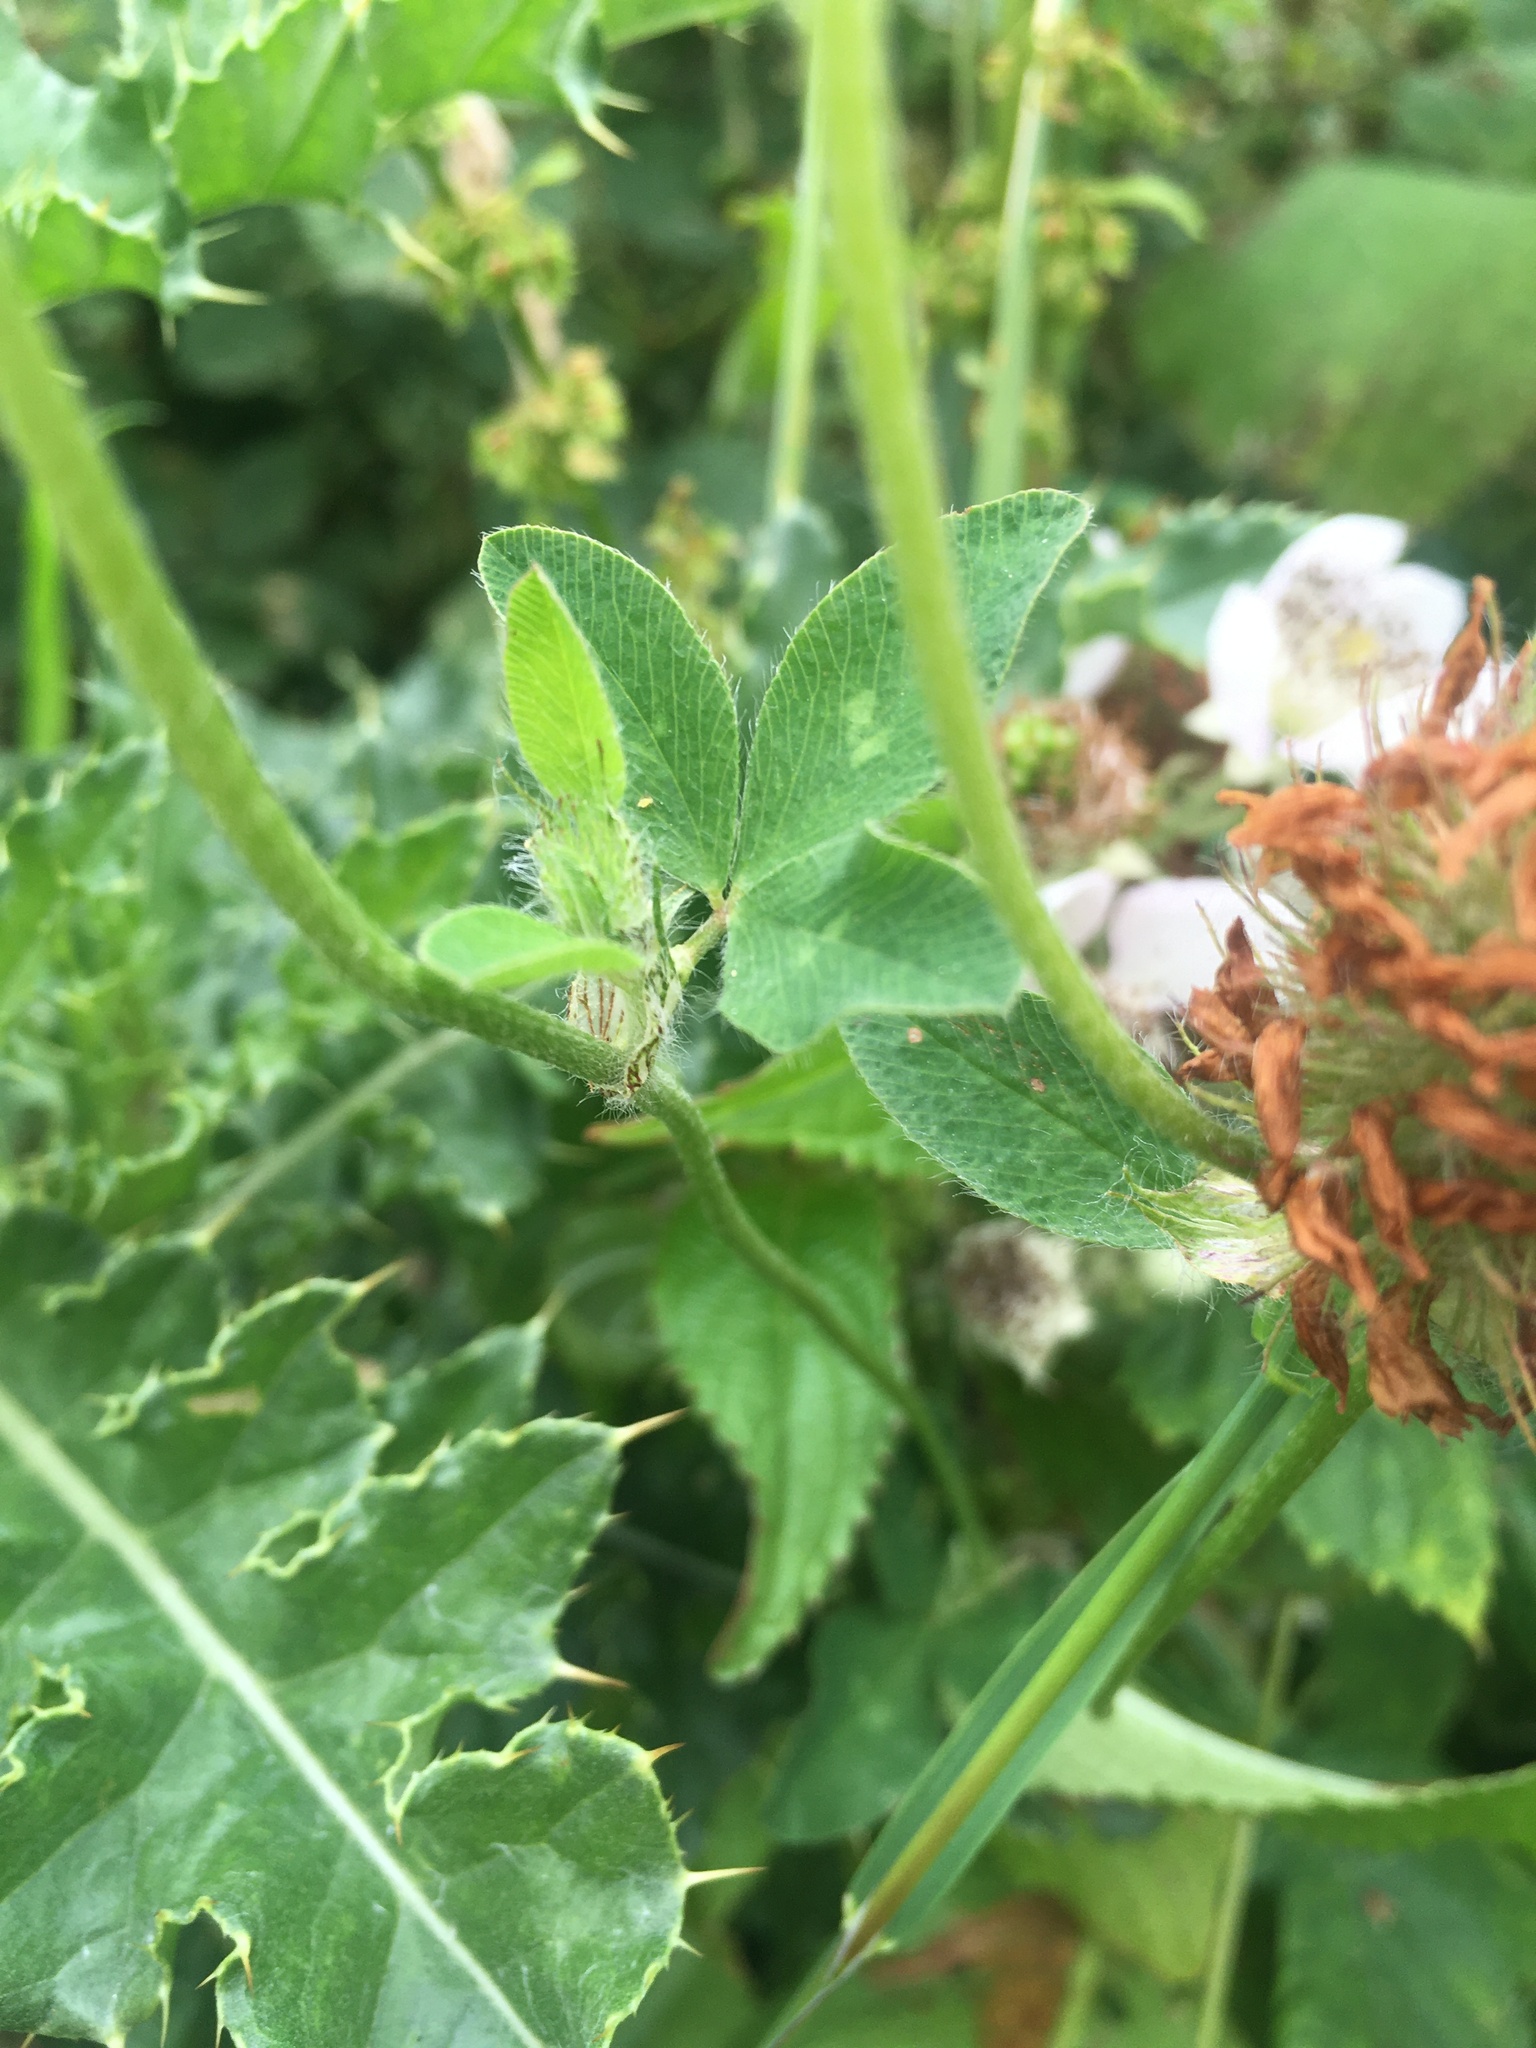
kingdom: Plantae
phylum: Tracheophyta
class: Magnoliopsida
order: Fabales
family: Fabaceae
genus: Trifolium
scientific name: Trifolium pratense
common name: Red clover
